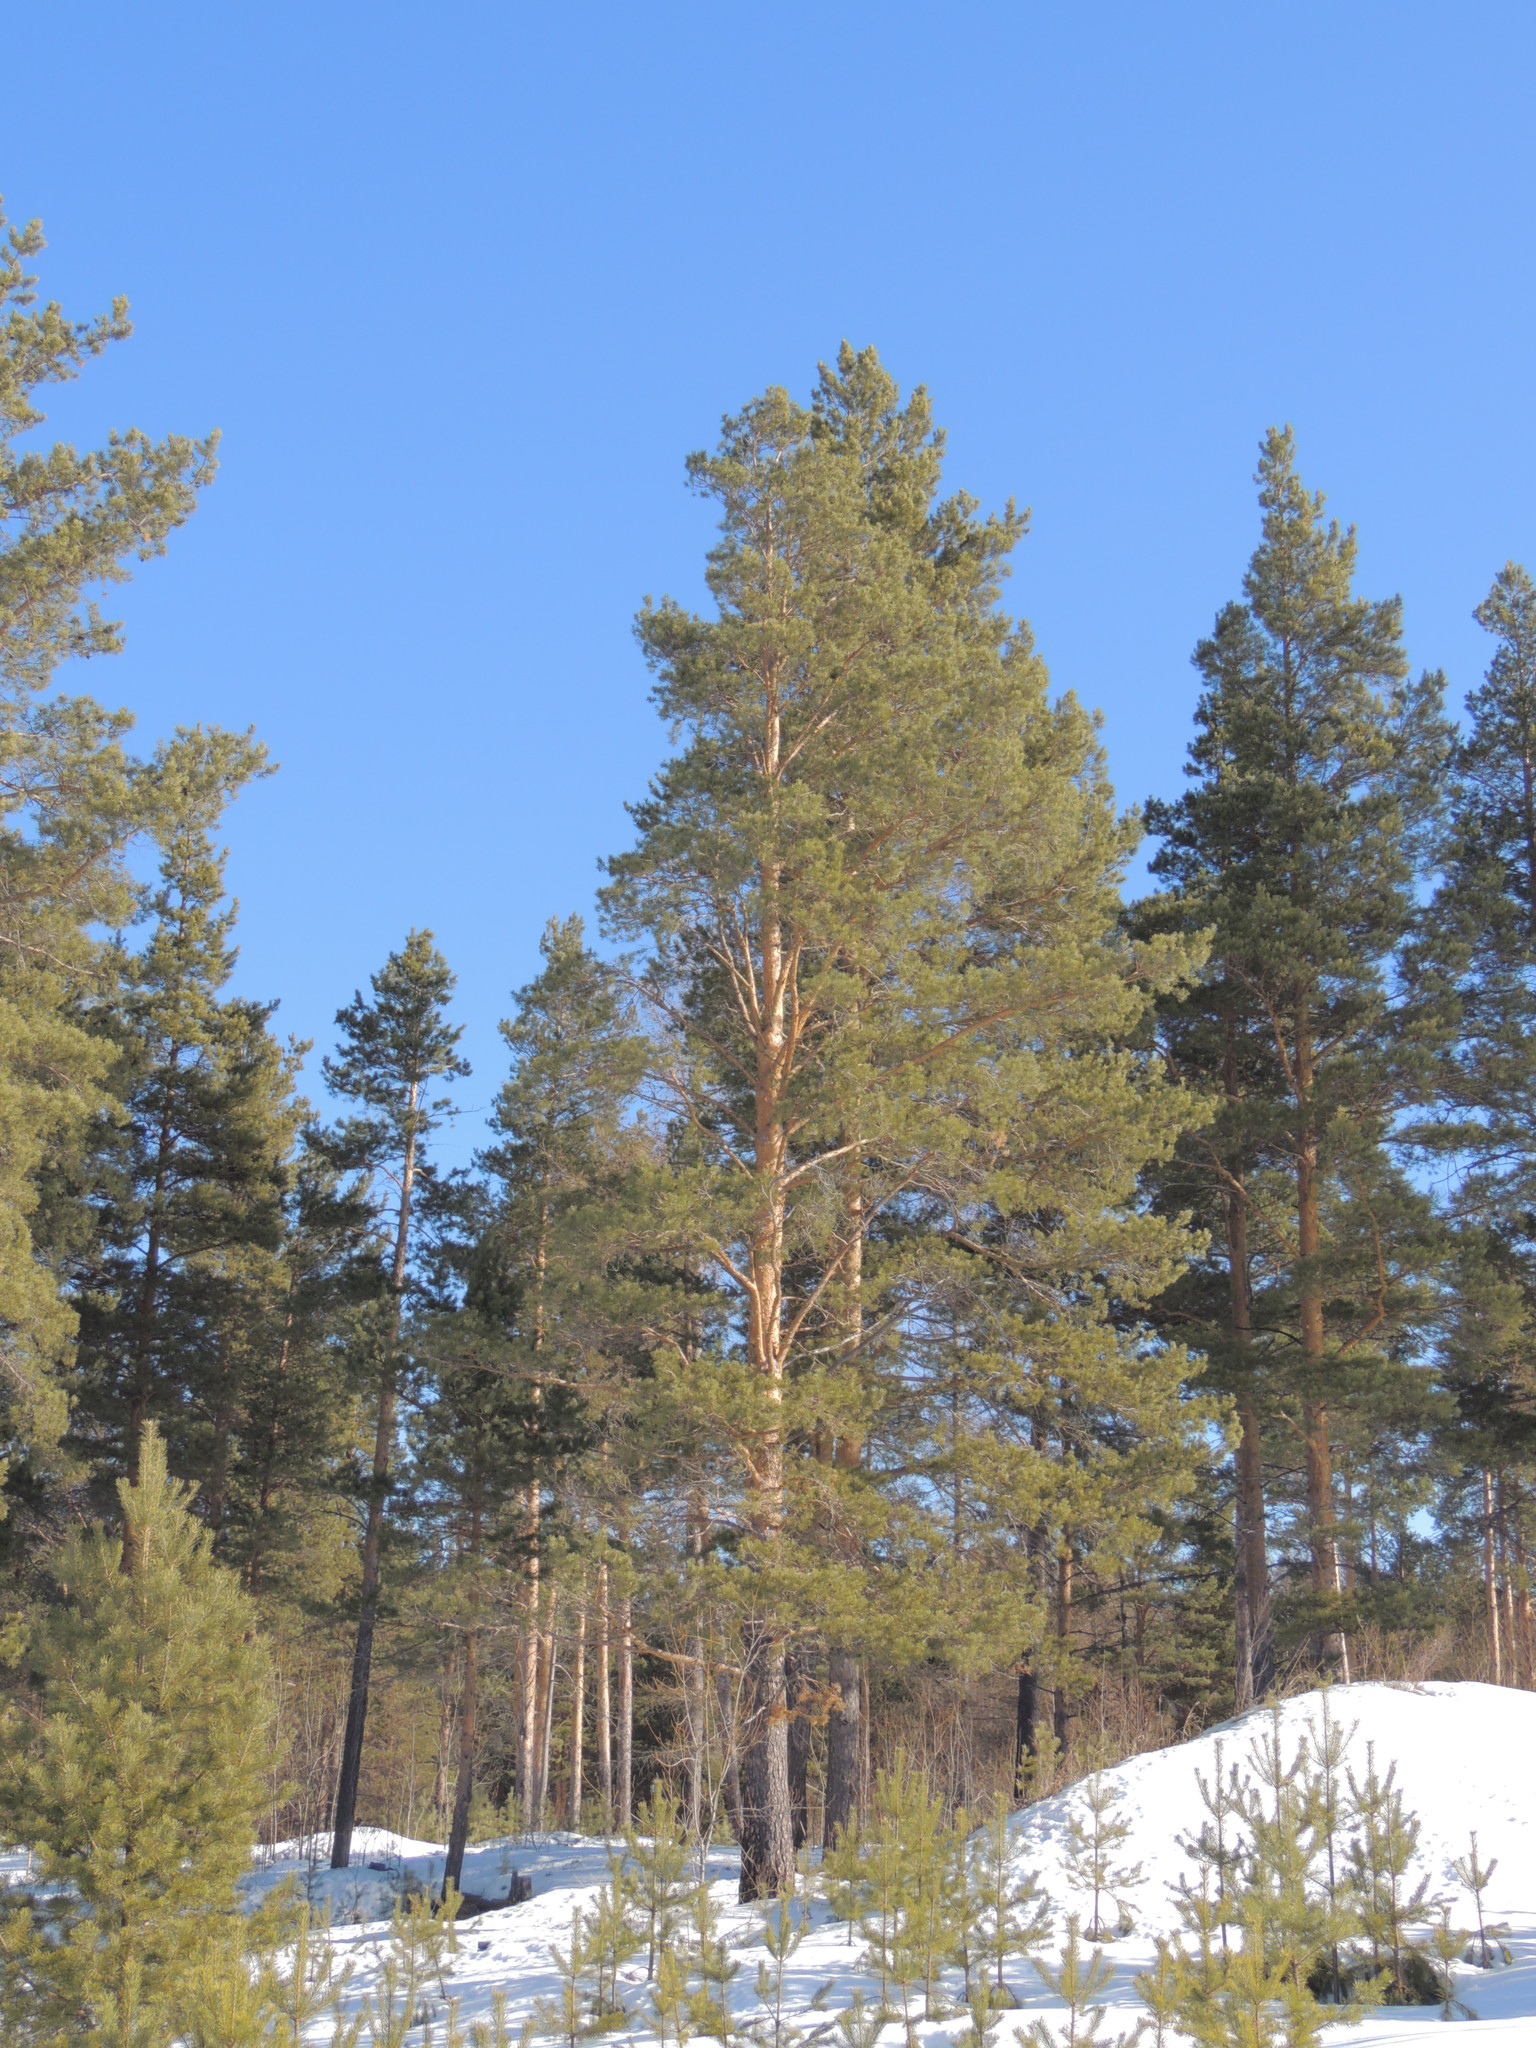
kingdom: Plantae
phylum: Tracheophyta
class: Pinopsida
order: Pinales
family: Pinaceae
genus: Pinus
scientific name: Pinus sylvestris
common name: Scots pine
